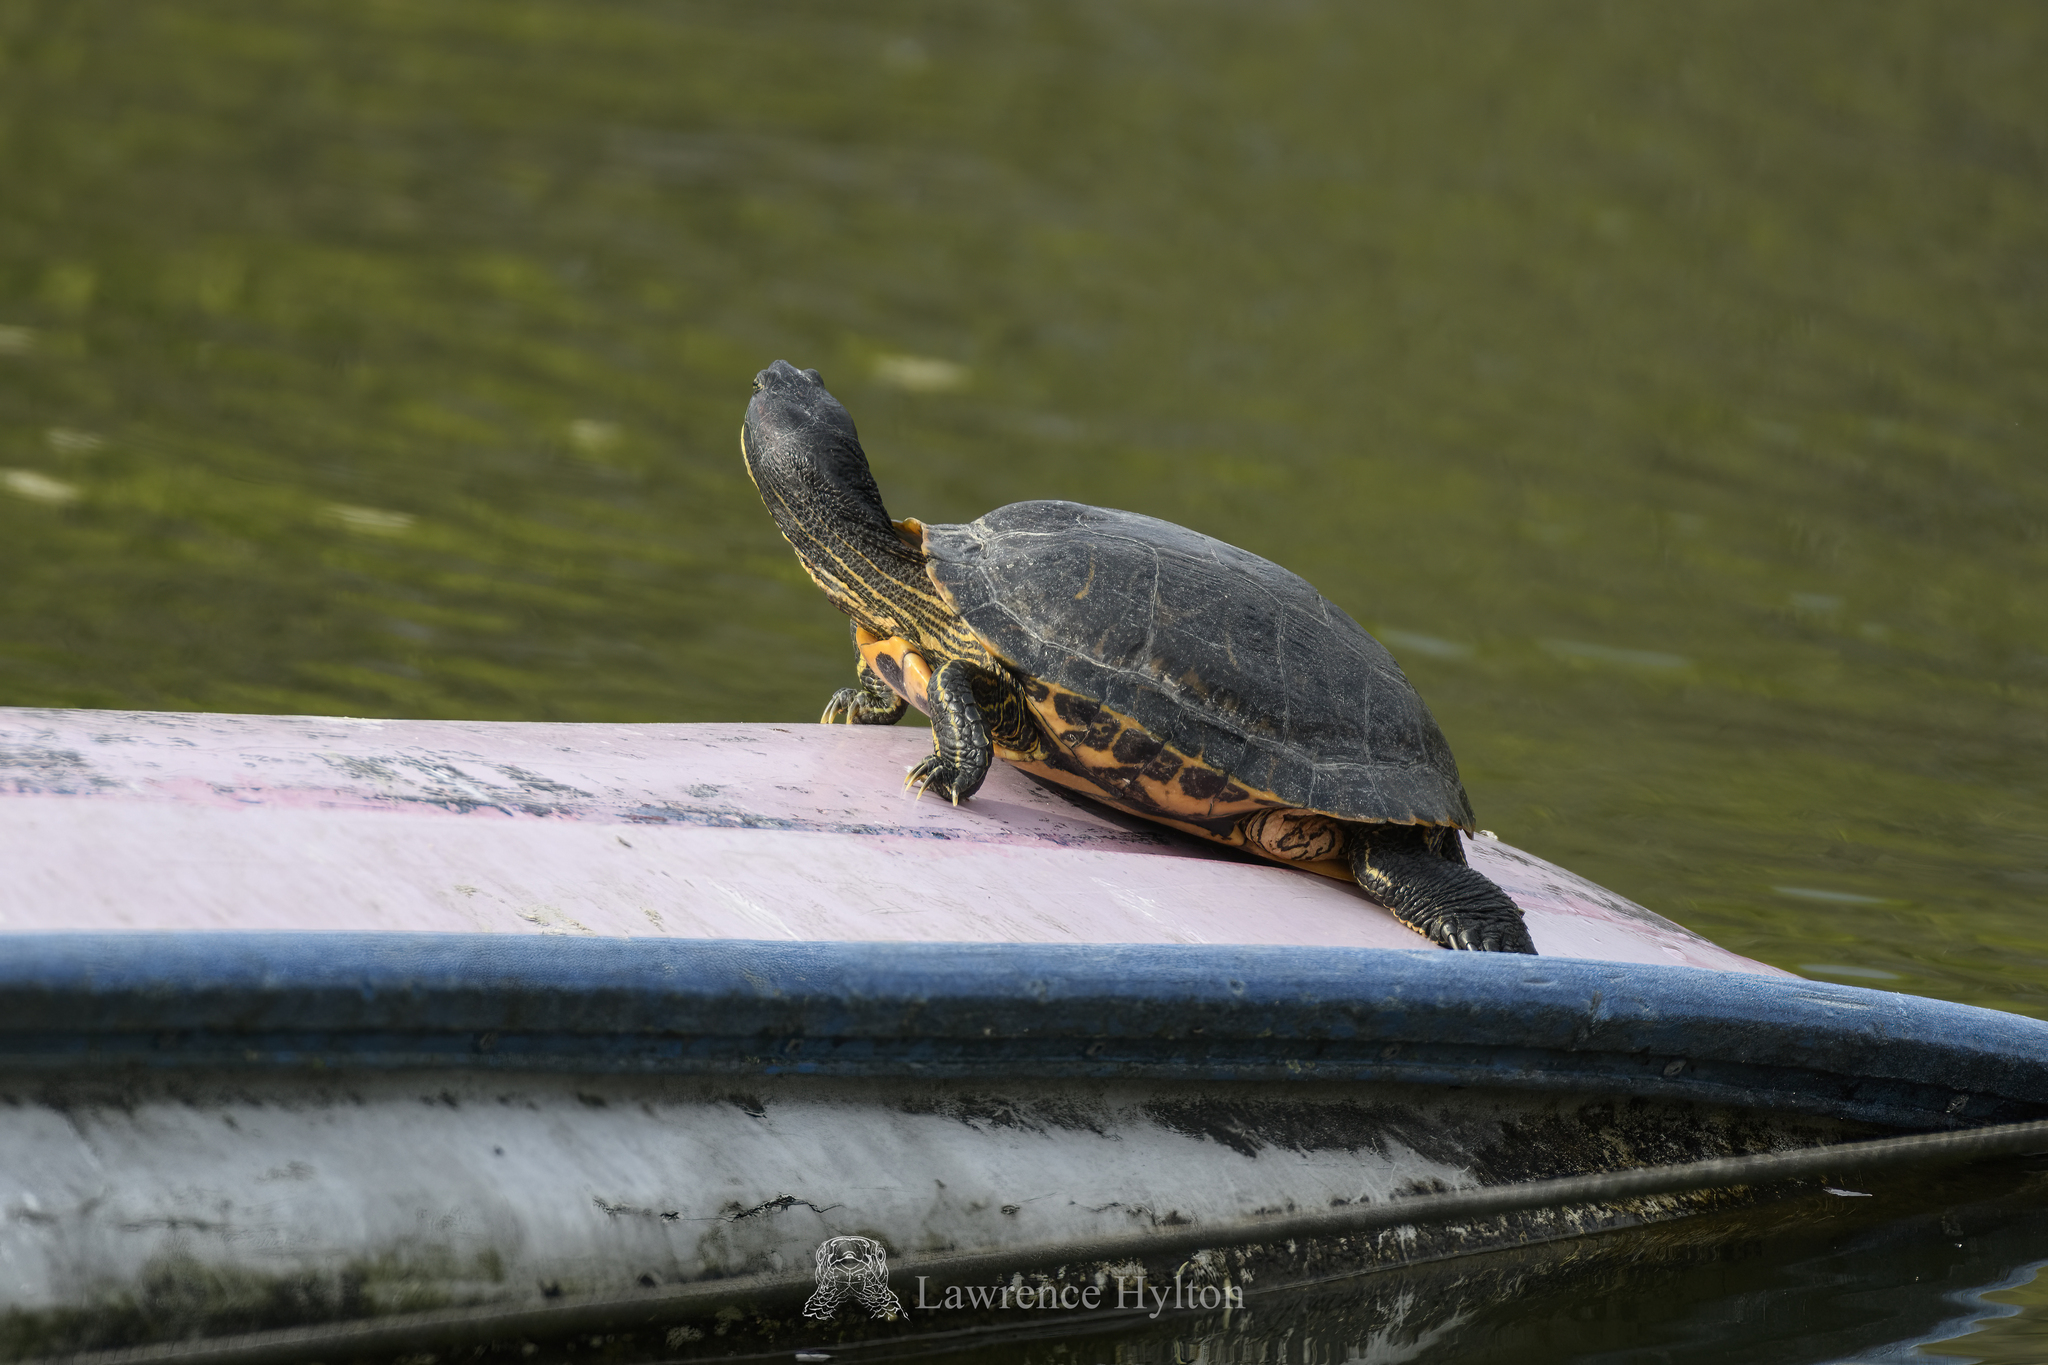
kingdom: Animalia
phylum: Chordata
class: Testudines
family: Emydidae
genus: Trachemys
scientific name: Trachemys scripta
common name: Slider
